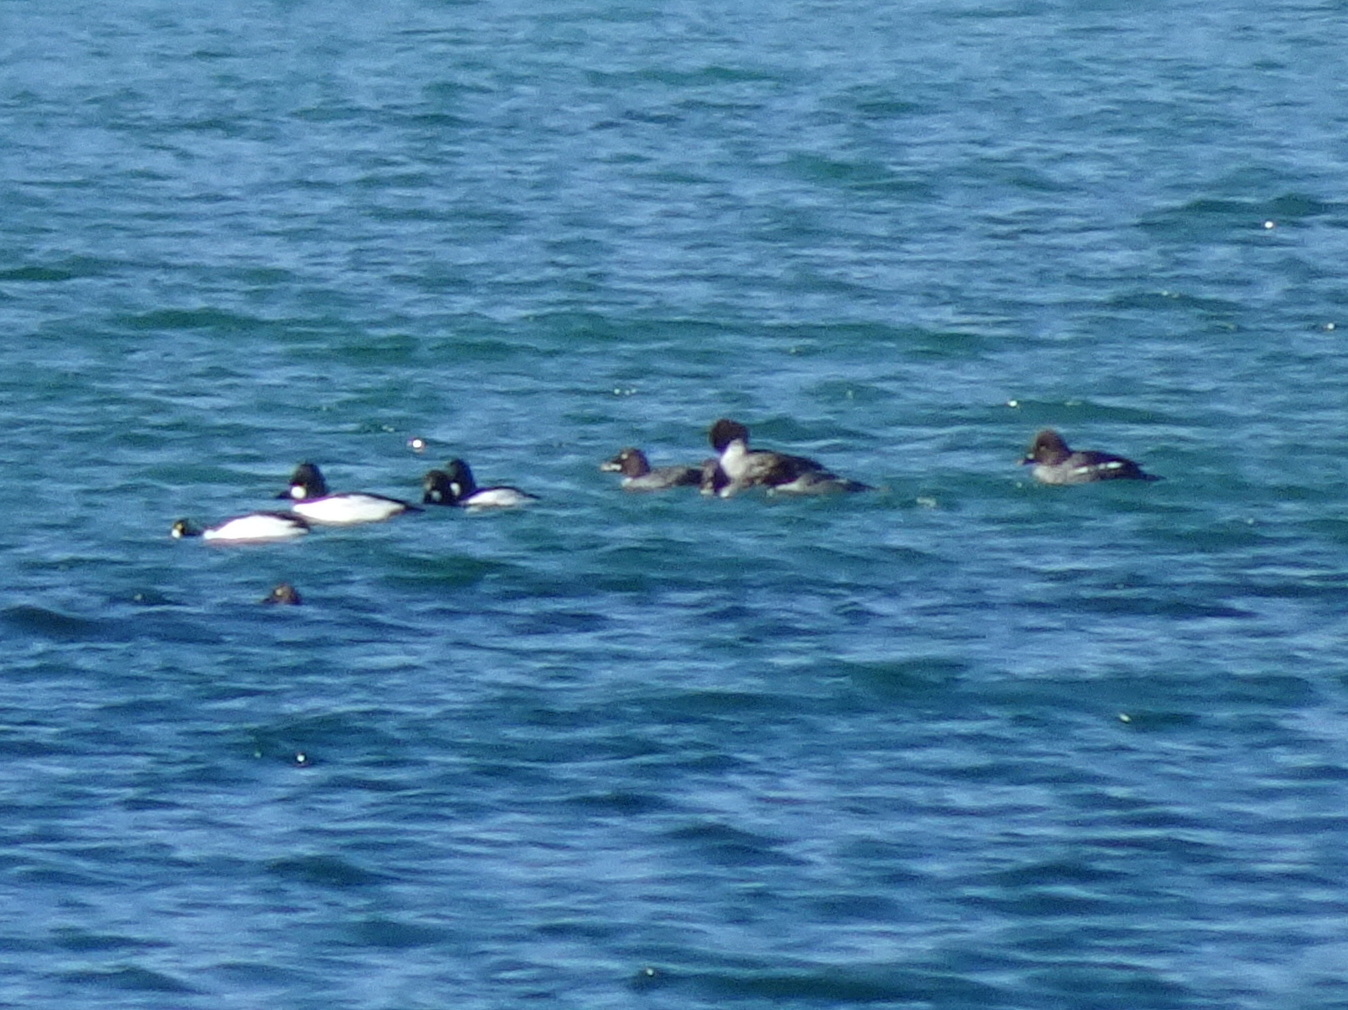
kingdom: Animalia
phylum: Chordata
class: Aves
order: Anseriformes
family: Anatidae
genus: Bucephala
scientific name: Bucephala clangula
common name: Common goldeneye
